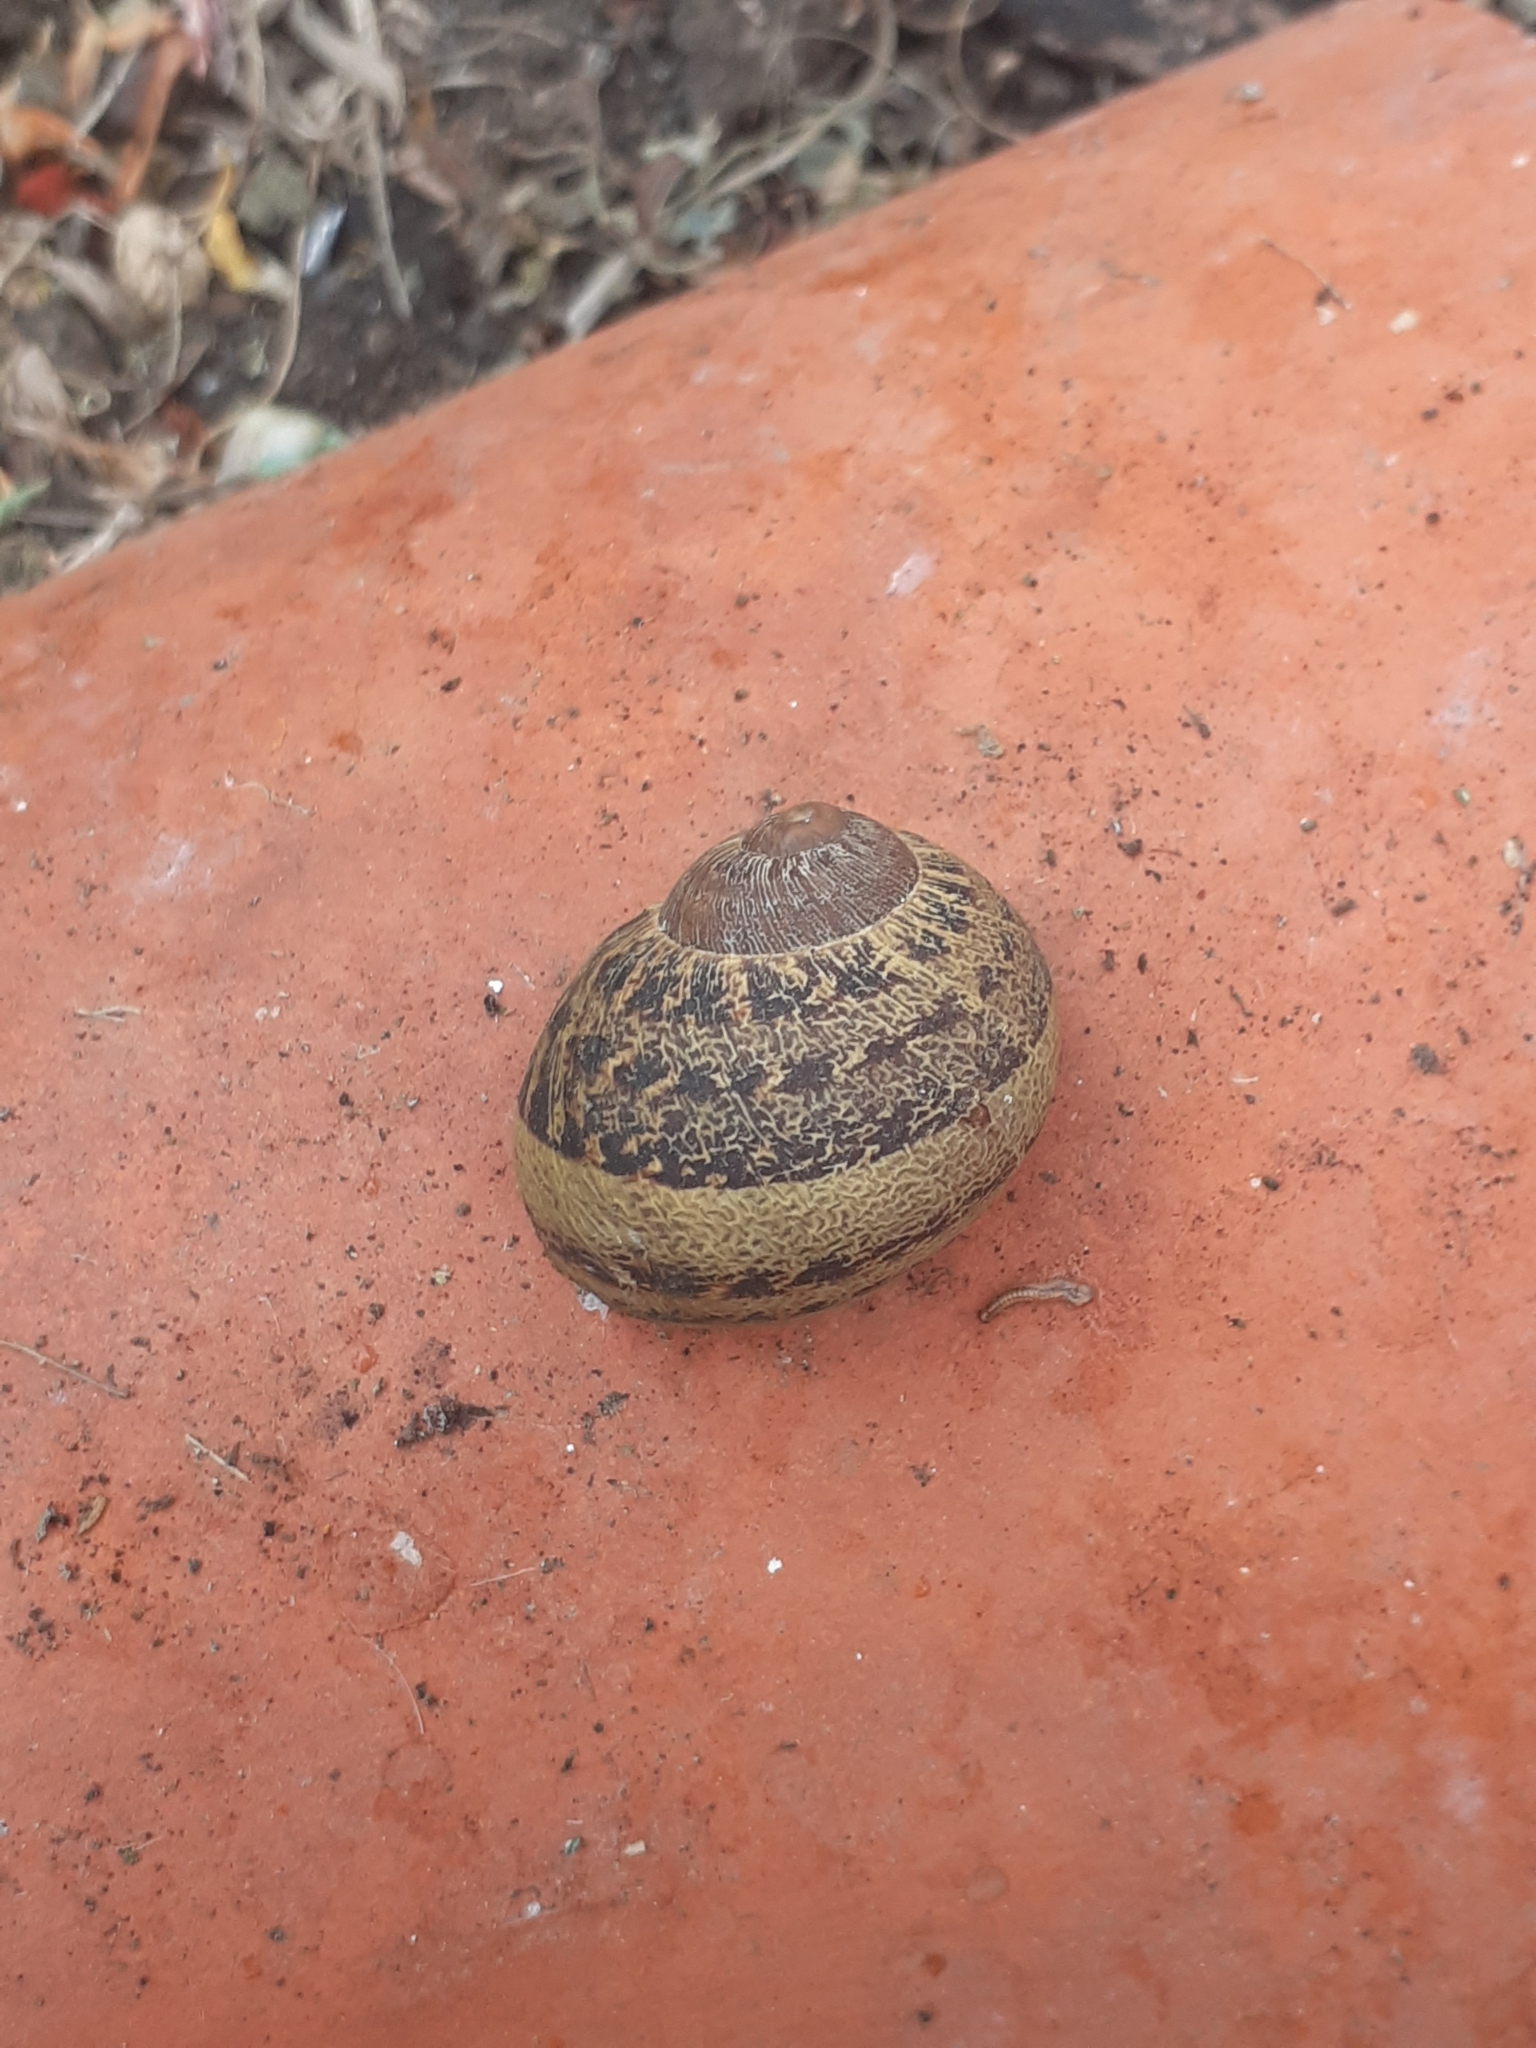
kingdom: Animalia
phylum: Mollusca
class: Gastropoda
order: Stylommatophora
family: Helicidae
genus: Cornu
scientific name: Cornu aspersum
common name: Brown garden snail
